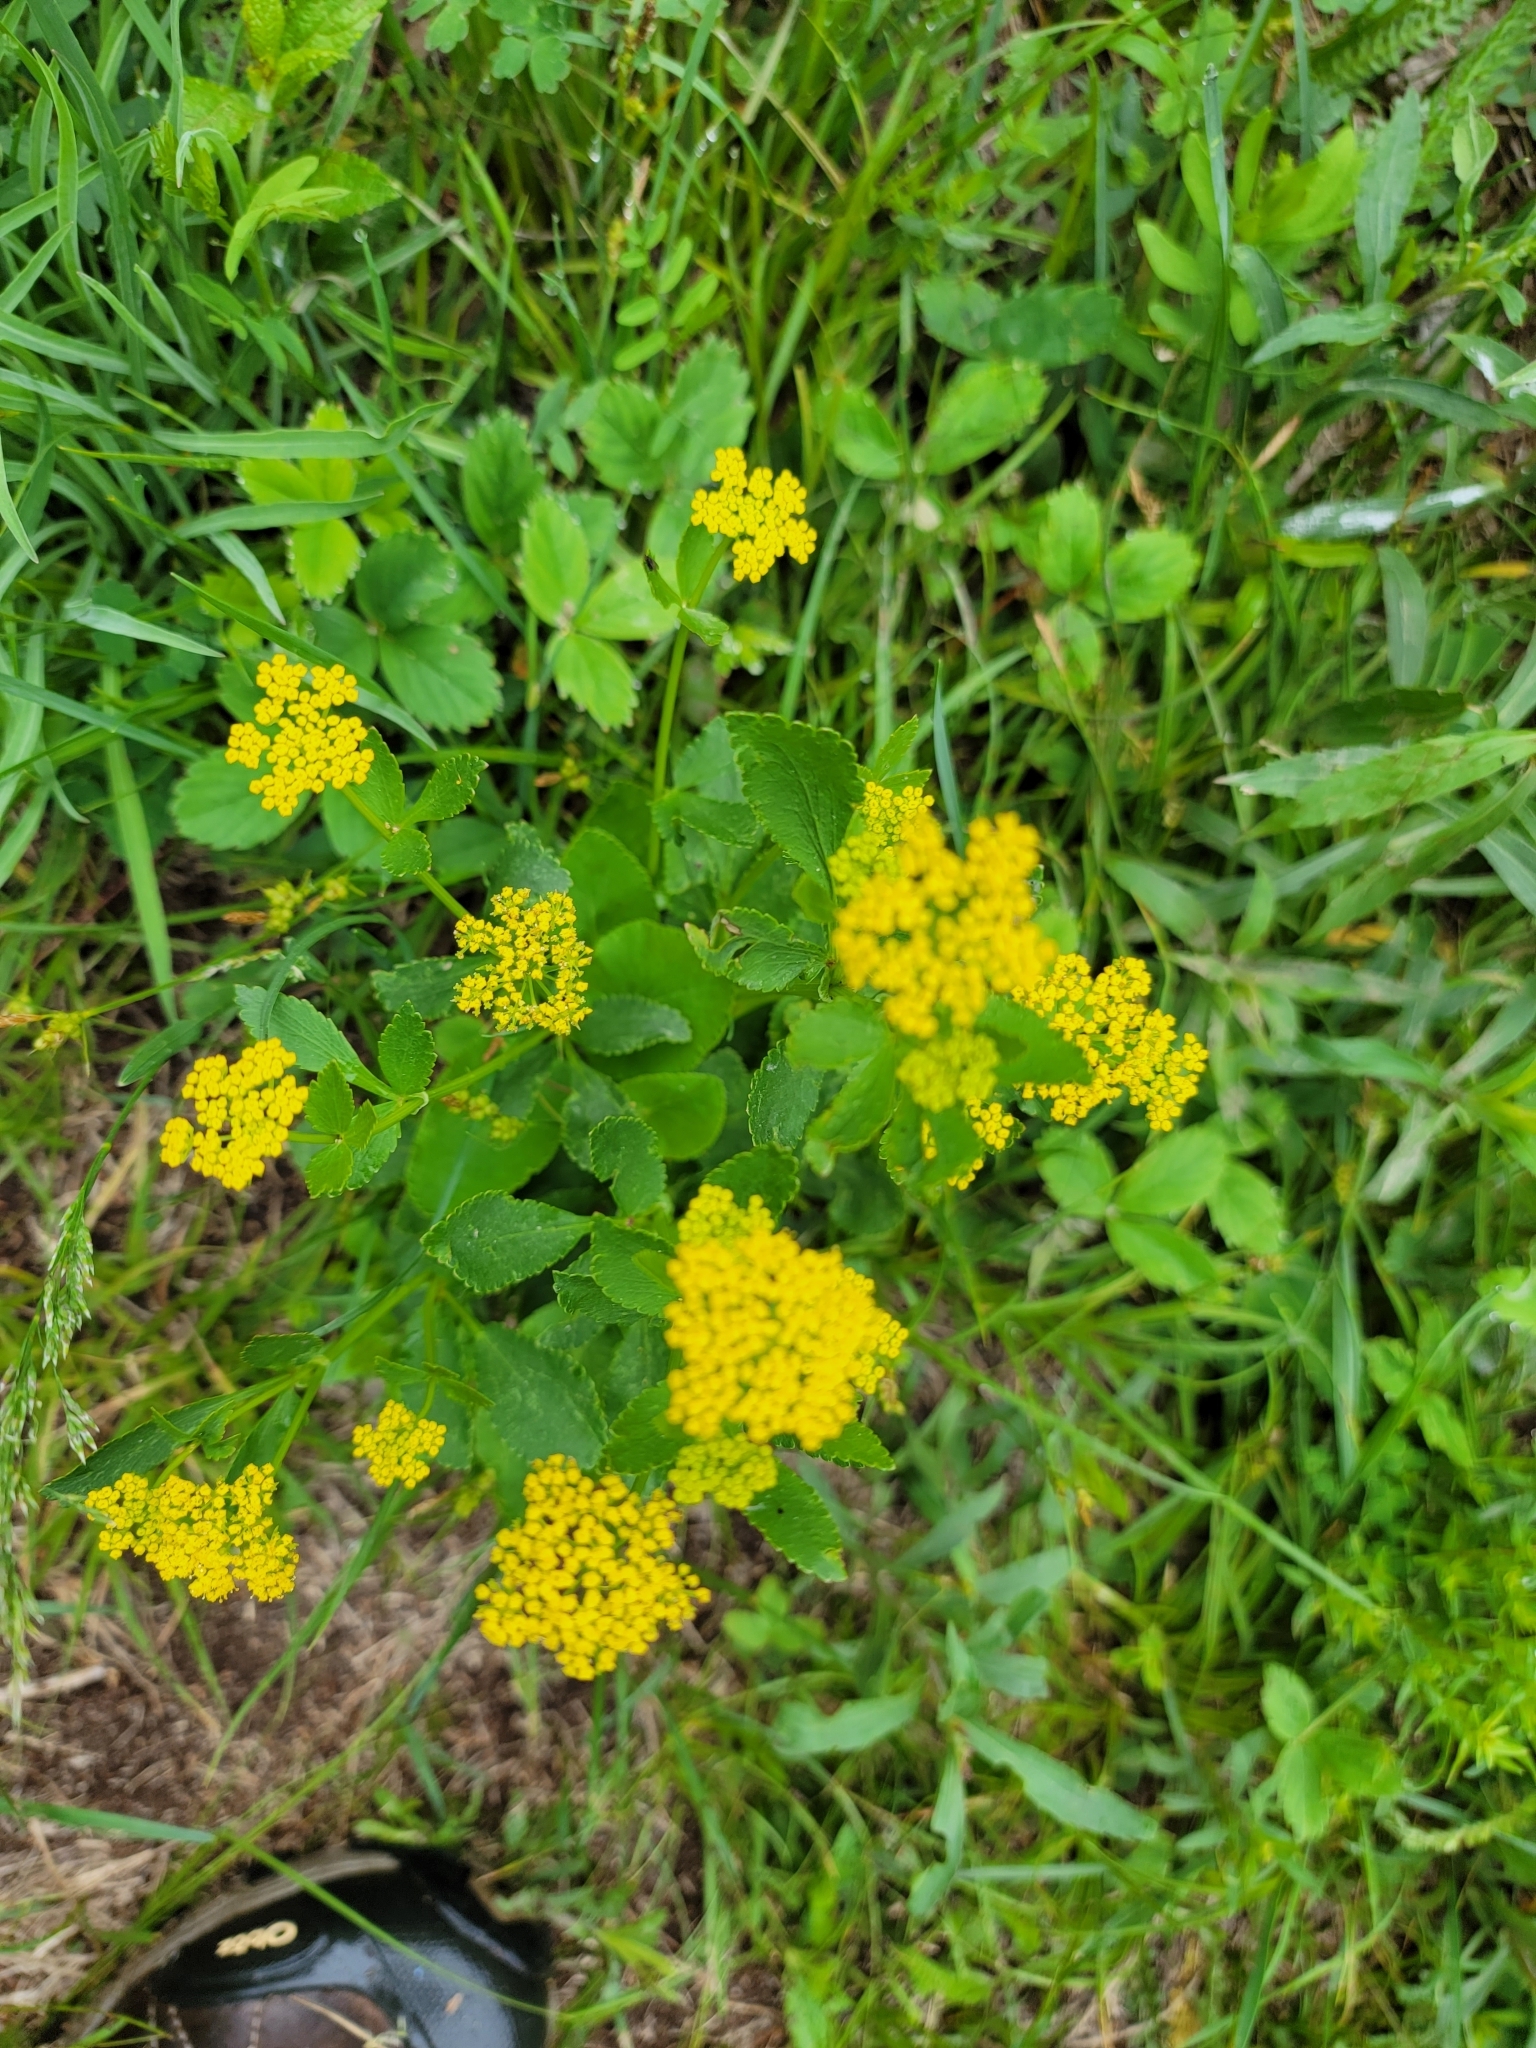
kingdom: Plantae
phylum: Tracheophyta
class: Magnoliopsida
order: Apiales
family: Apiaceae
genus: Zizia
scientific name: Zizia aptera
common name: Heart-leaved alexanders
